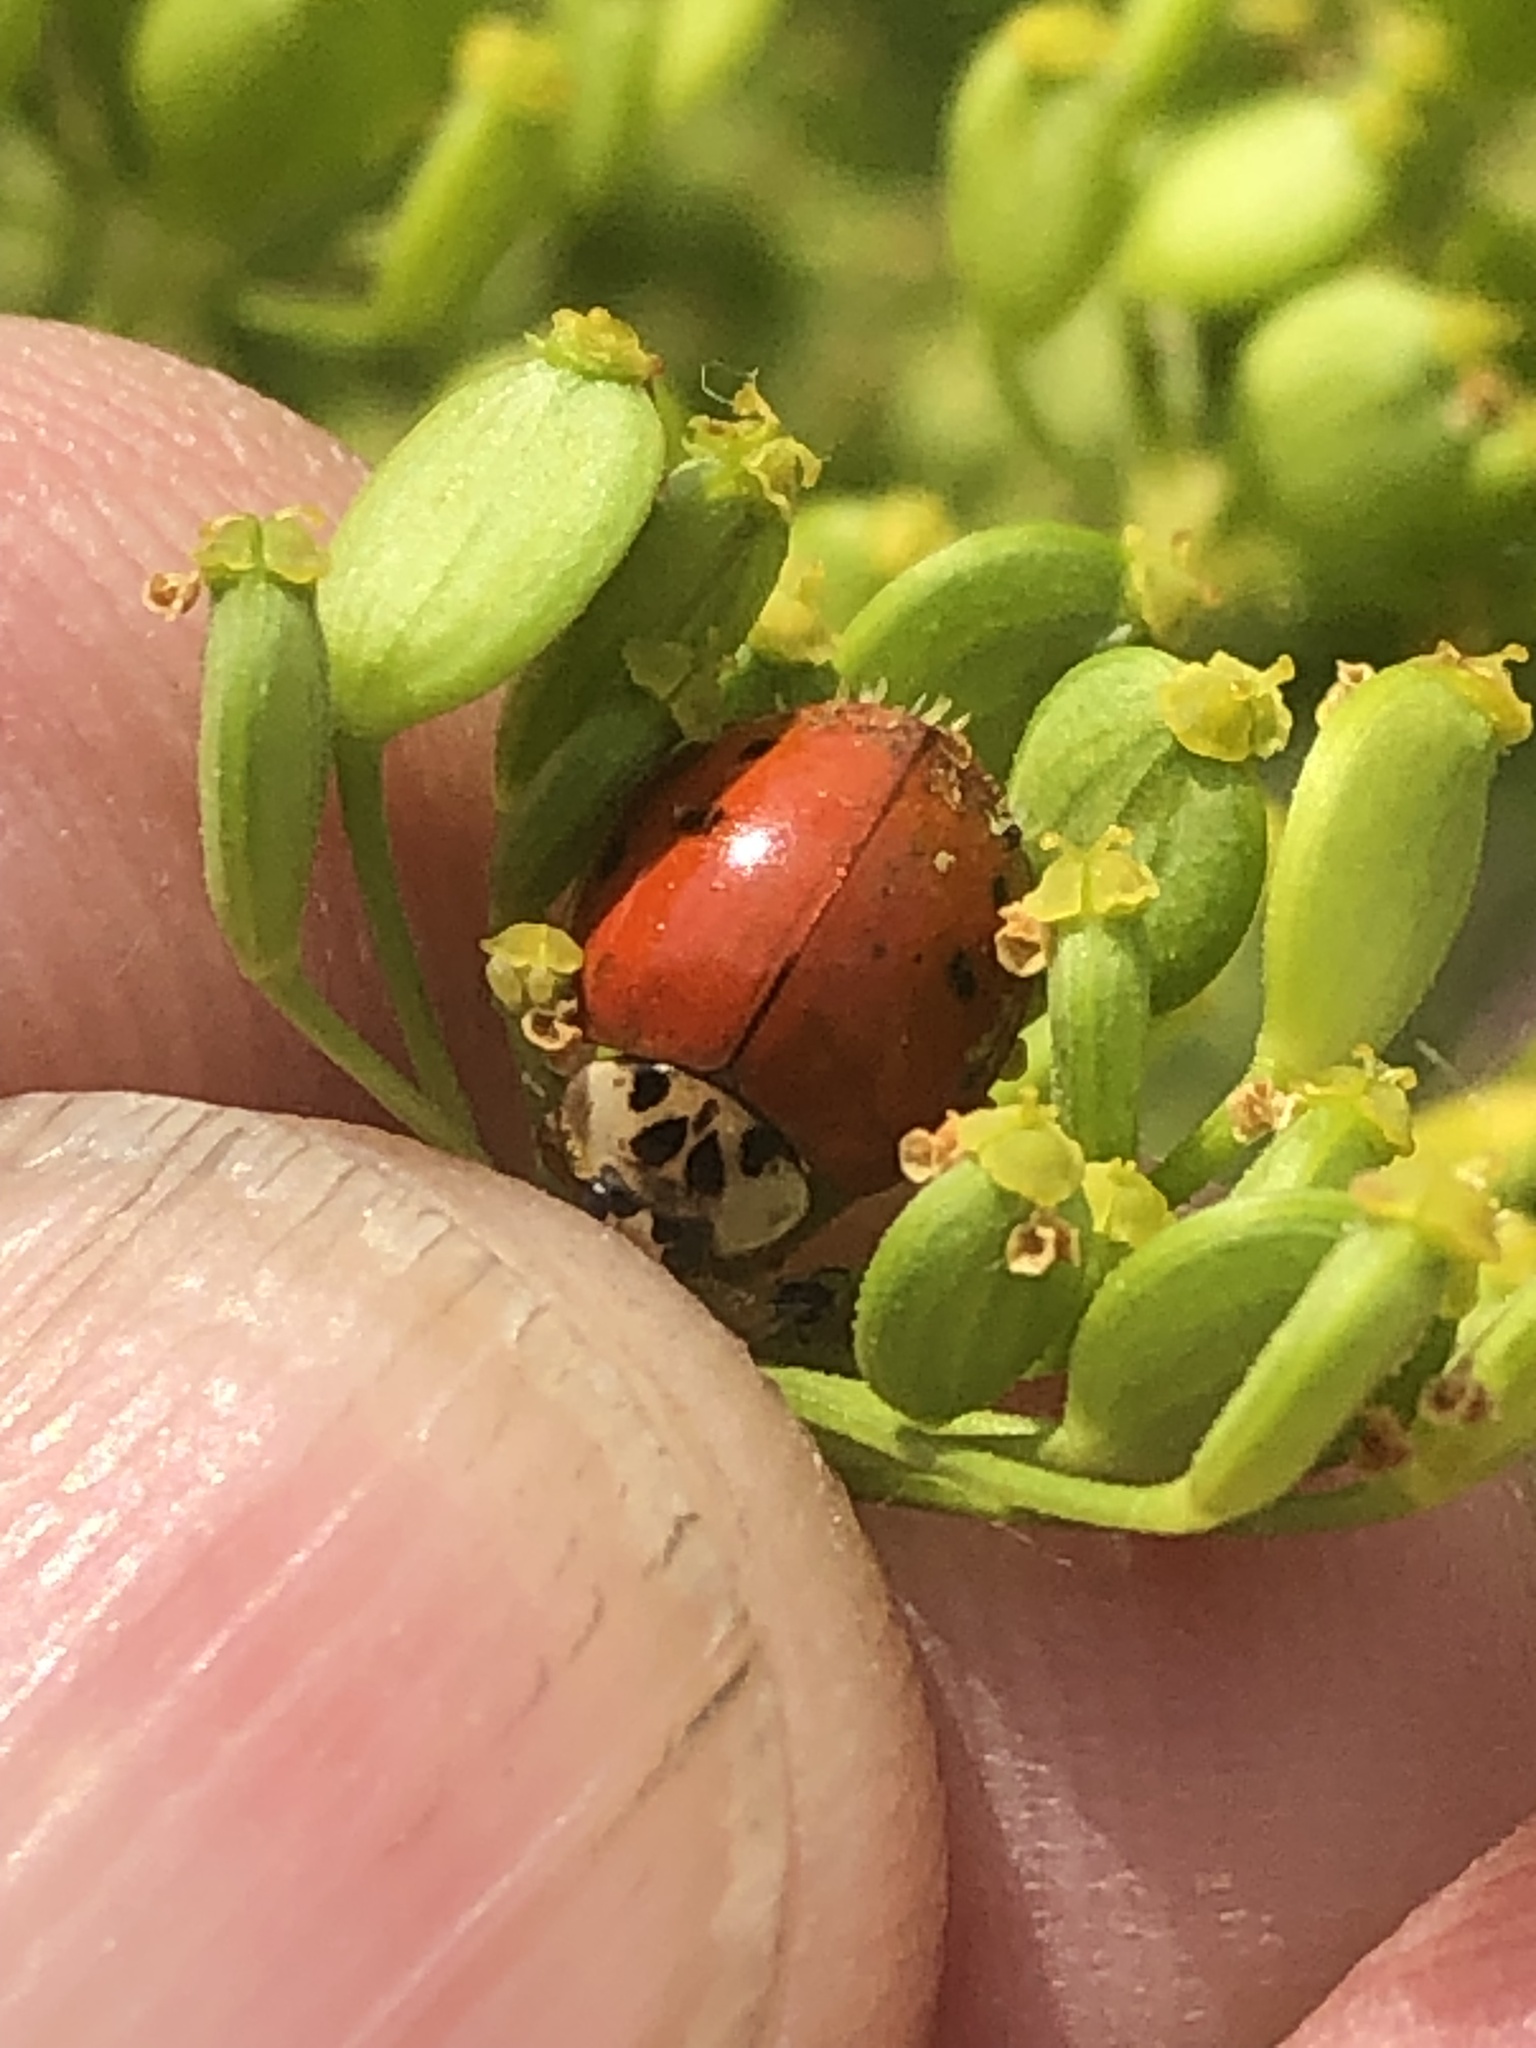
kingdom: Animalia
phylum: Arthropoda
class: Insecta
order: Coleoptera
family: Coccinellidae
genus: Harmonia
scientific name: Harmonia axyridis
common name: Harlequin ladybird
